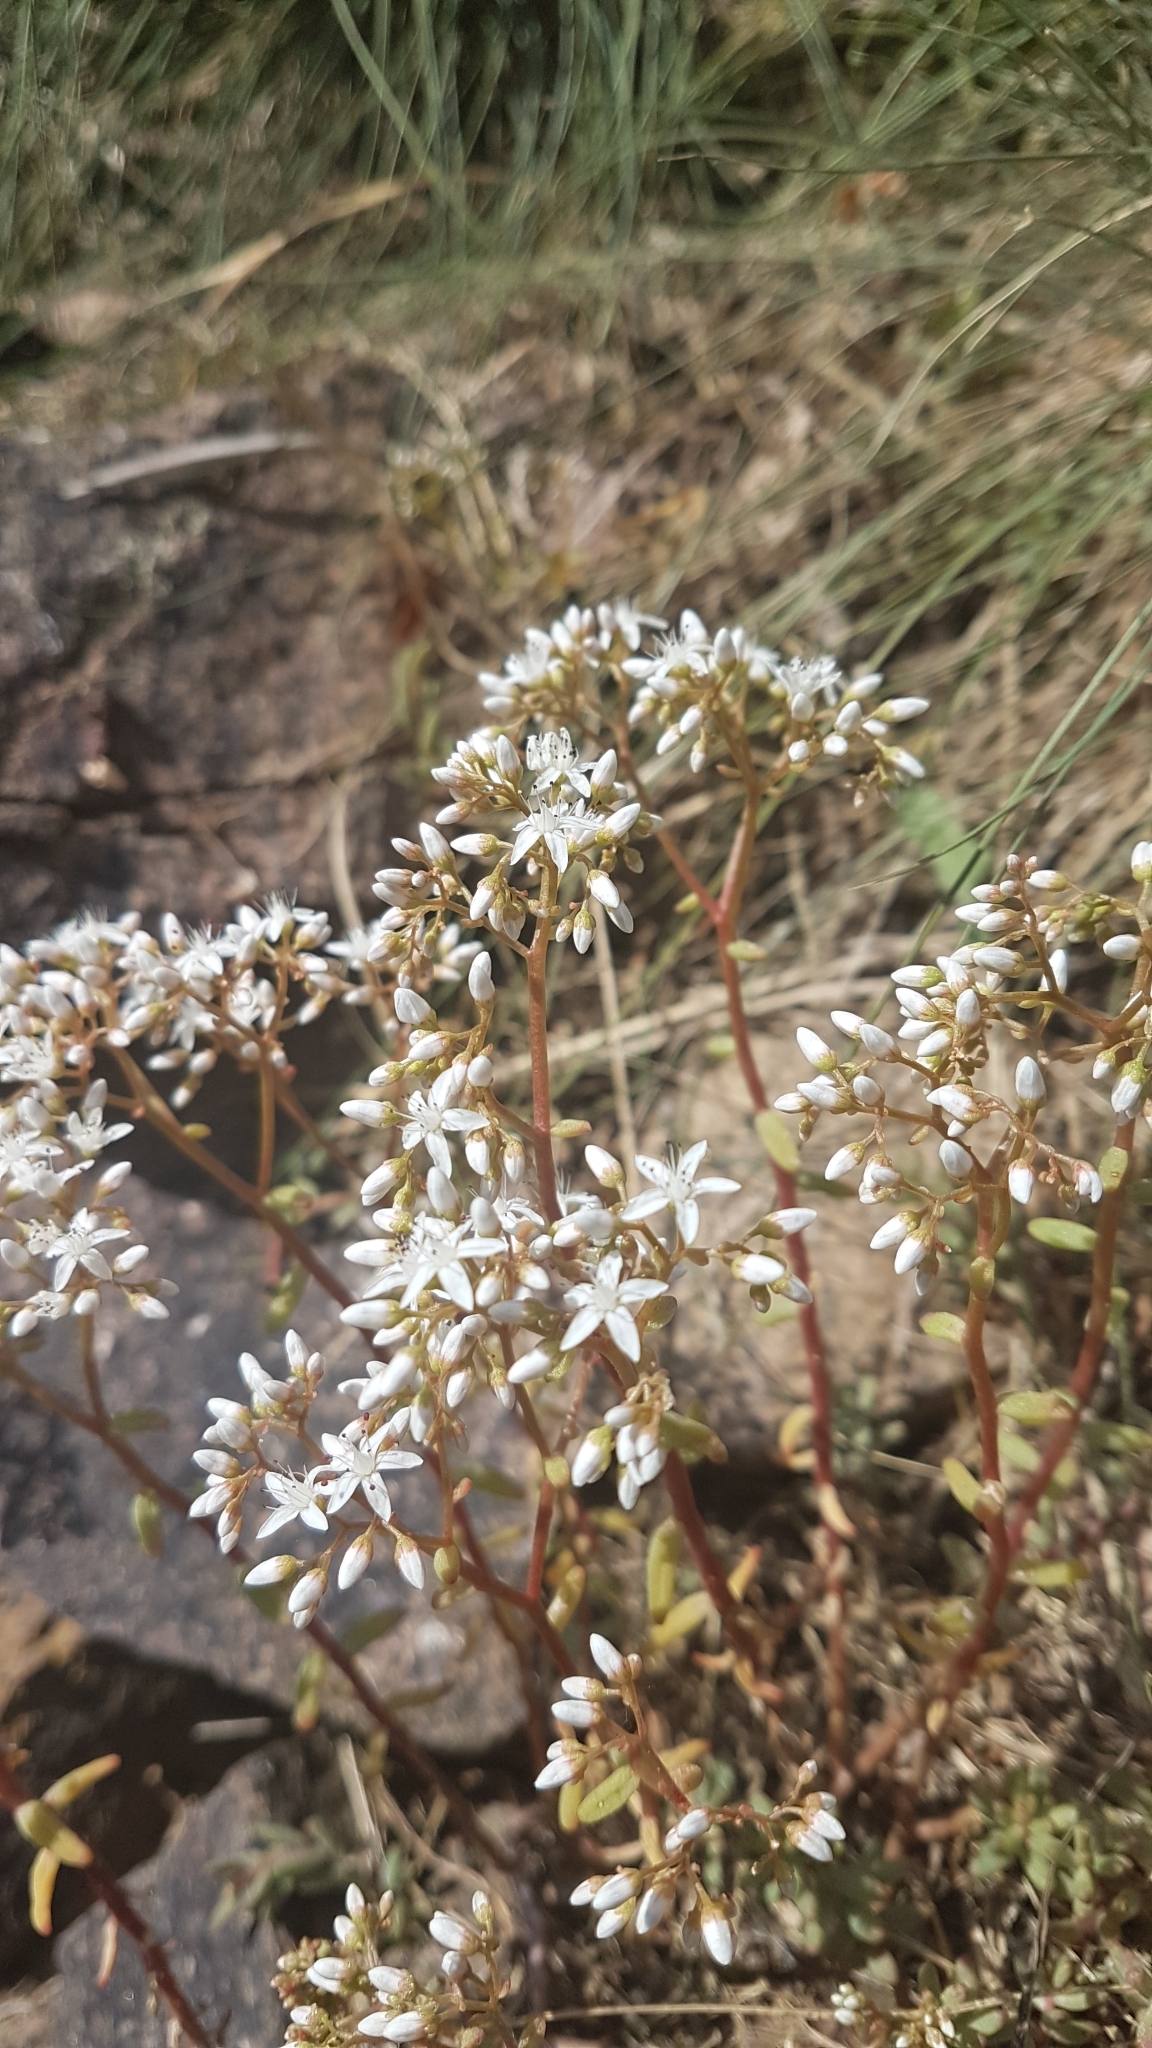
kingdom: Plantae
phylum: Tracheophyta
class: Magnoliopsida
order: Saxifragales
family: Crassulaceae
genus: Sedum
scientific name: Sedum album
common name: White stonecrop
